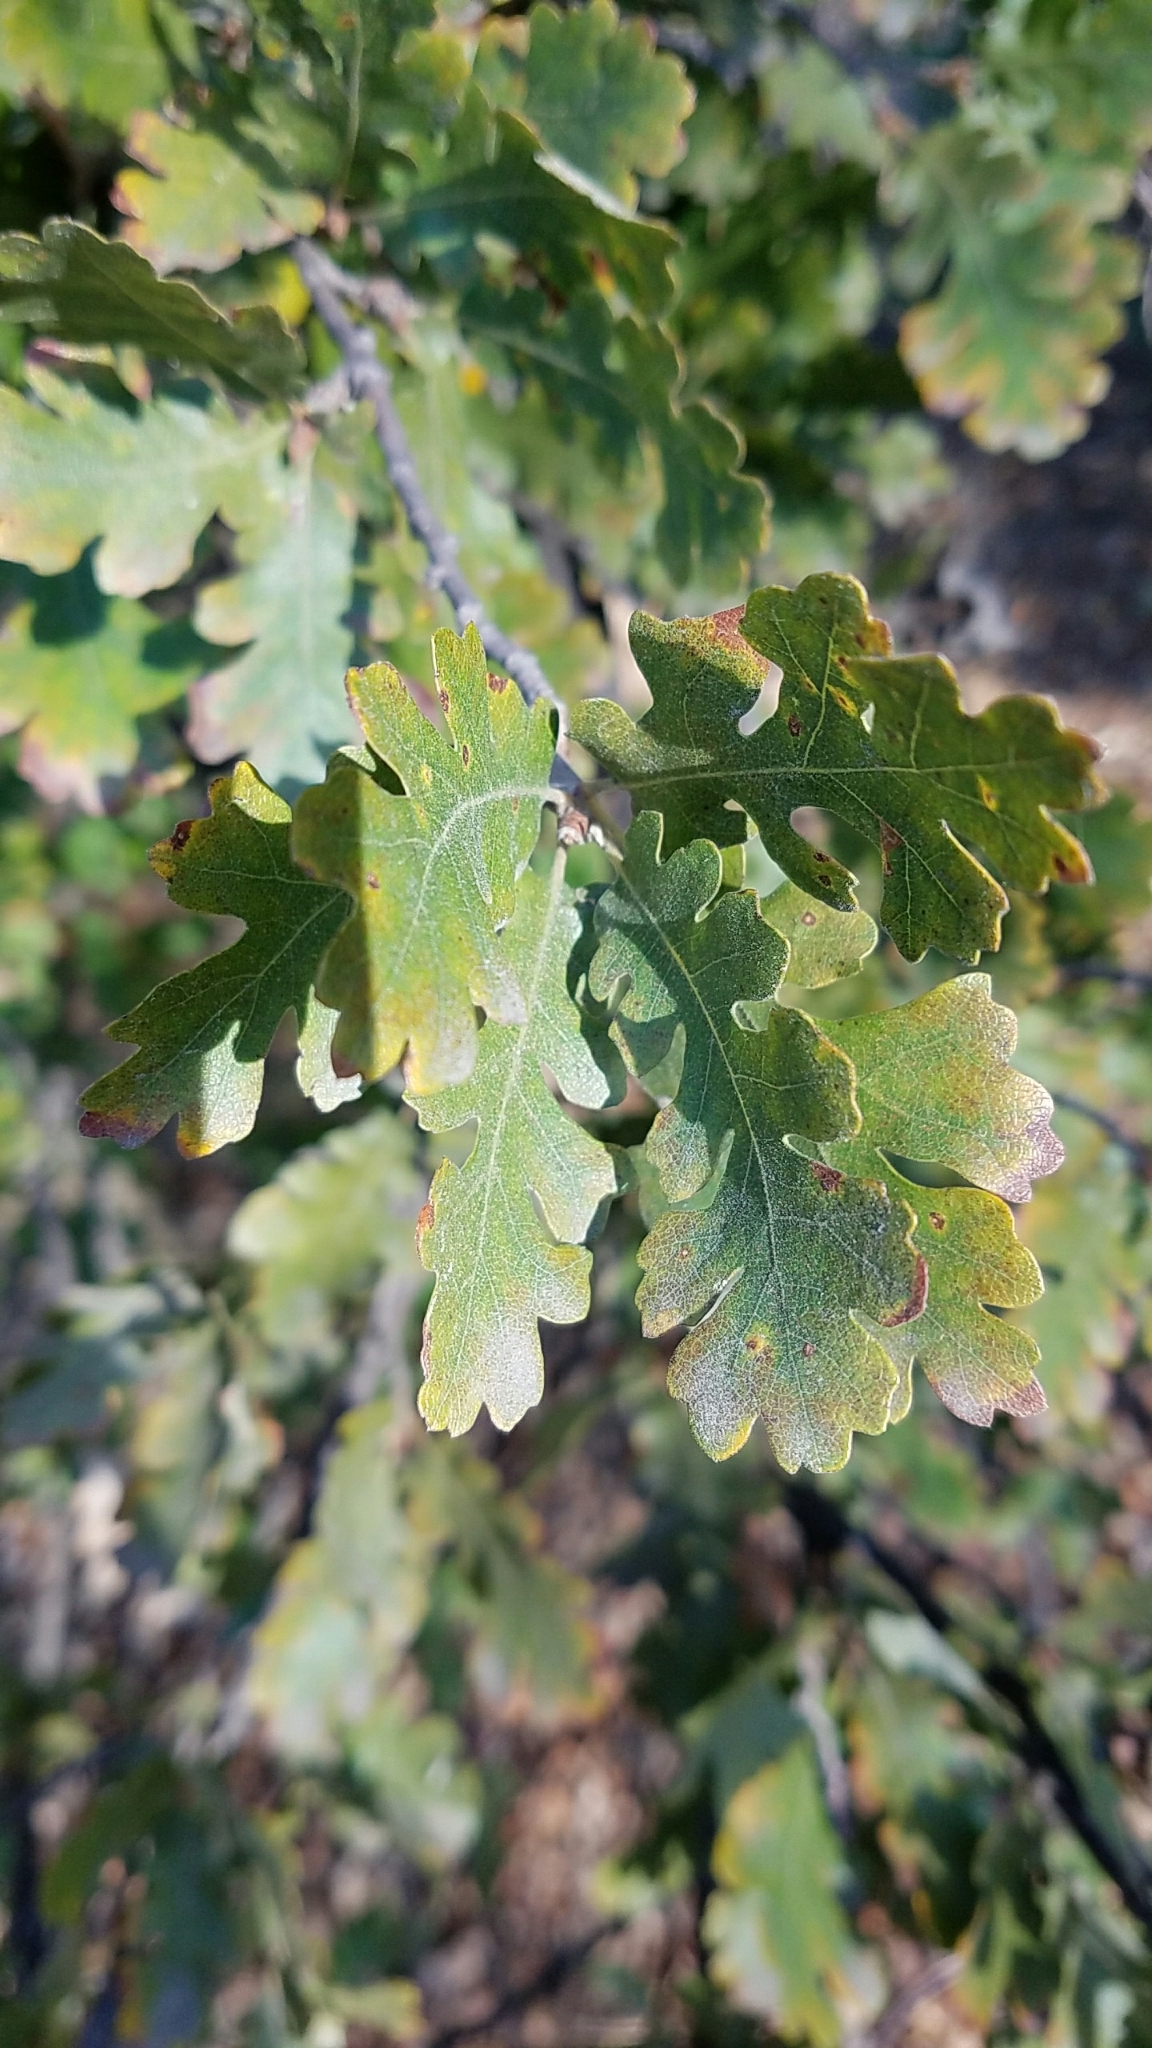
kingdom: Plantae
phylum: Tracheophyta
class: Magnoliopsida
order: Fagales
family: Fagaceae
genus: Quercus
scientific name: Quercus lobata
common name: Valley oak
